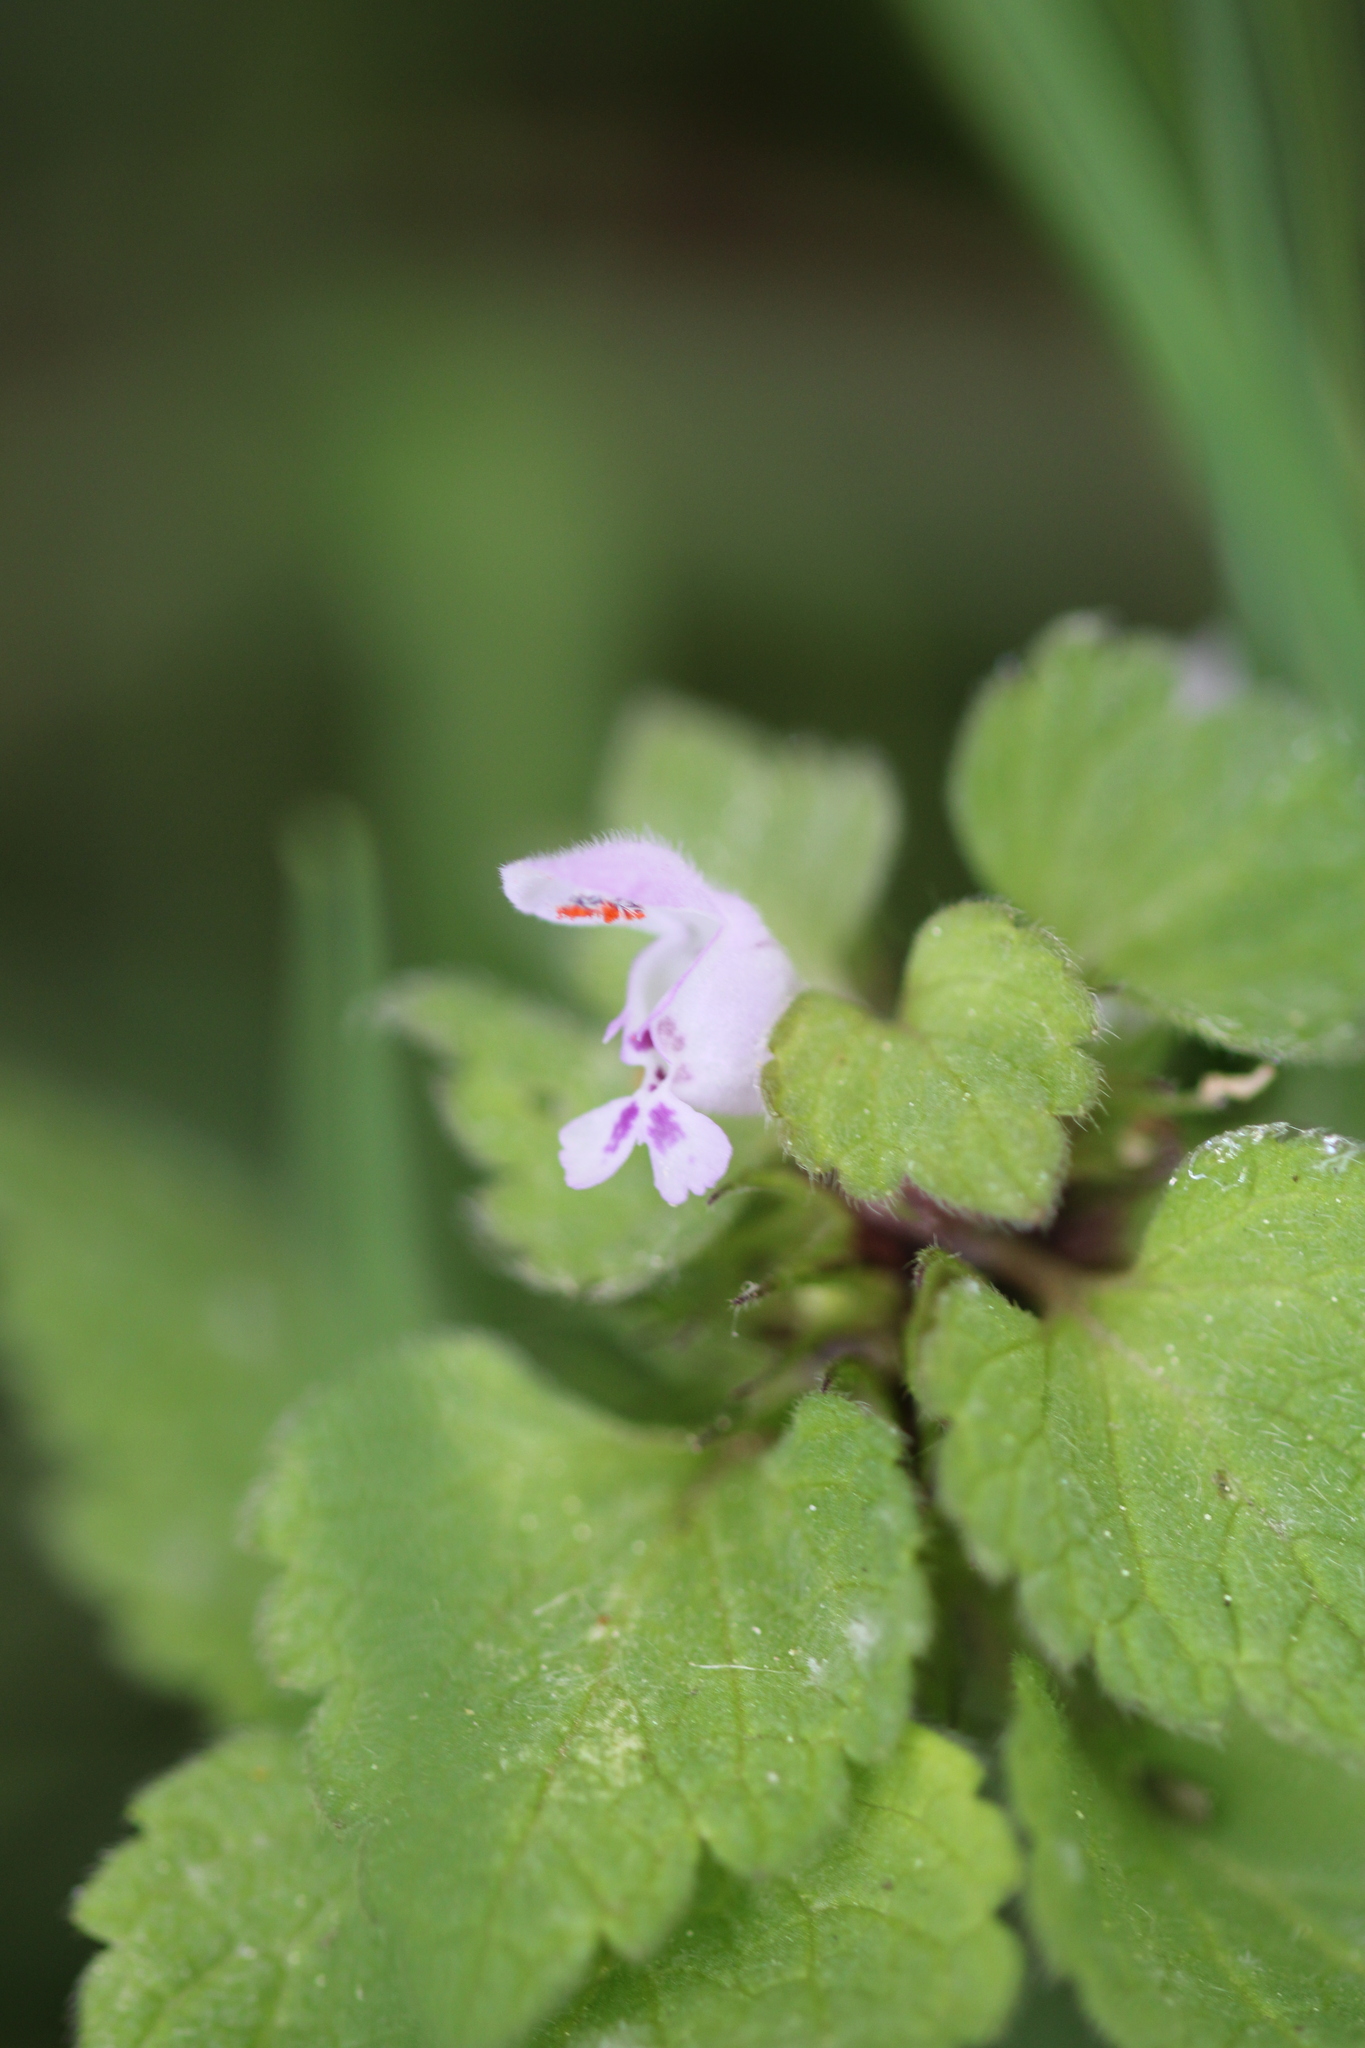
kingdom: Plantae
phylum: Tracheophyta
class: Magnoliopsida
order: Lamiales
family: Lamiaceae
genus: Lamium
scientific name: Lamium purpureum
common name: Red dead-nettle
